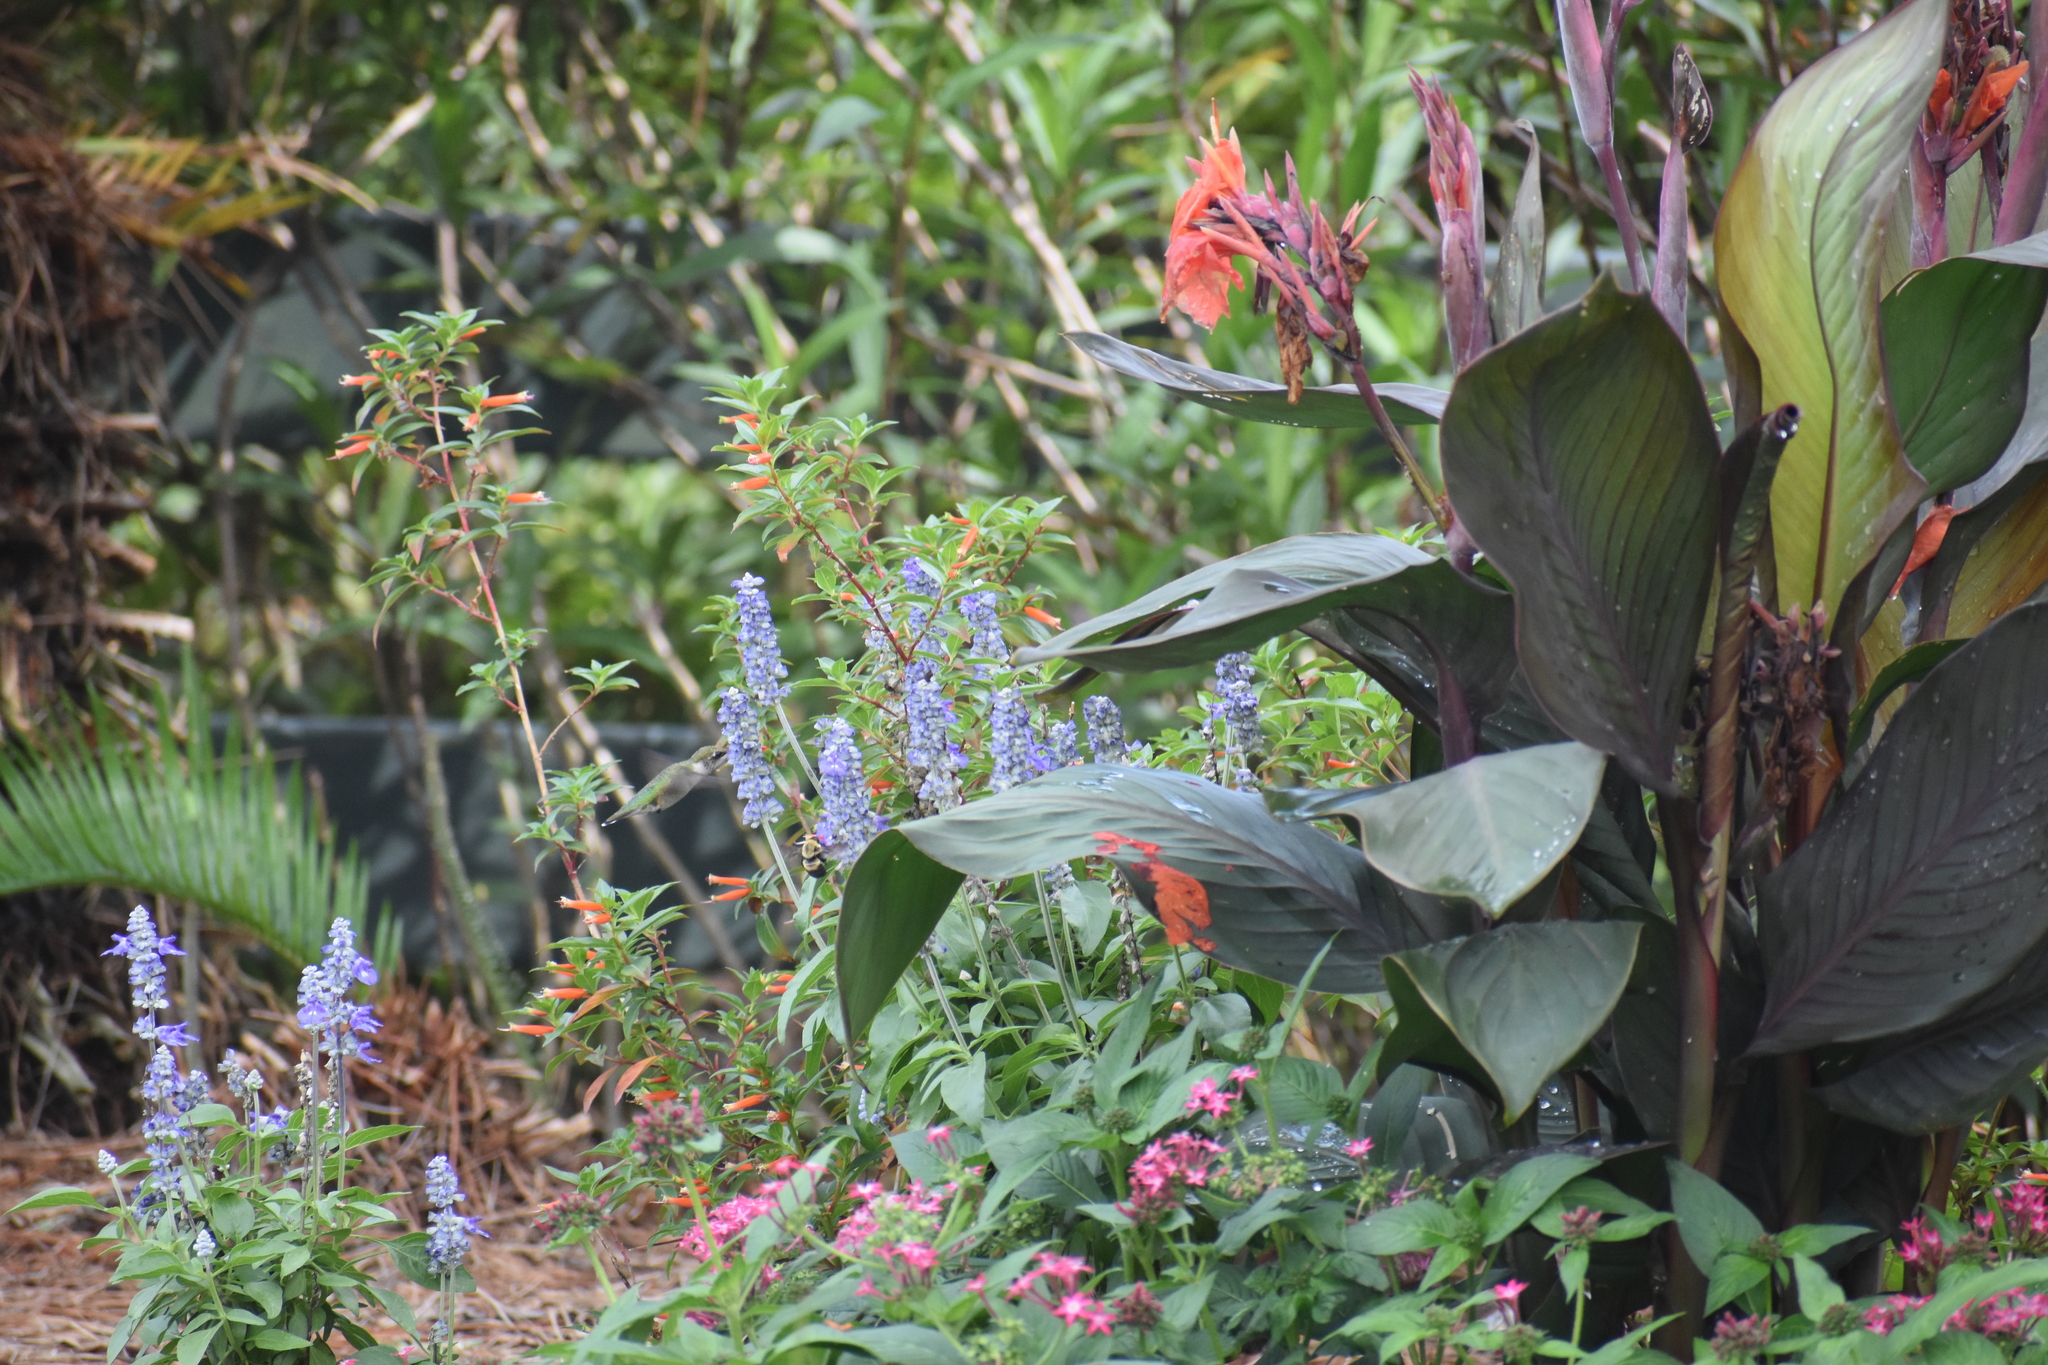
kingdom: Animalia
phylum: Chordata
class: Aves
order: Apodiformes
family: Trochilidae
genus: Archilochus
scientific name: Archilochus colubris
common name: Ruby-throated hummingbird
